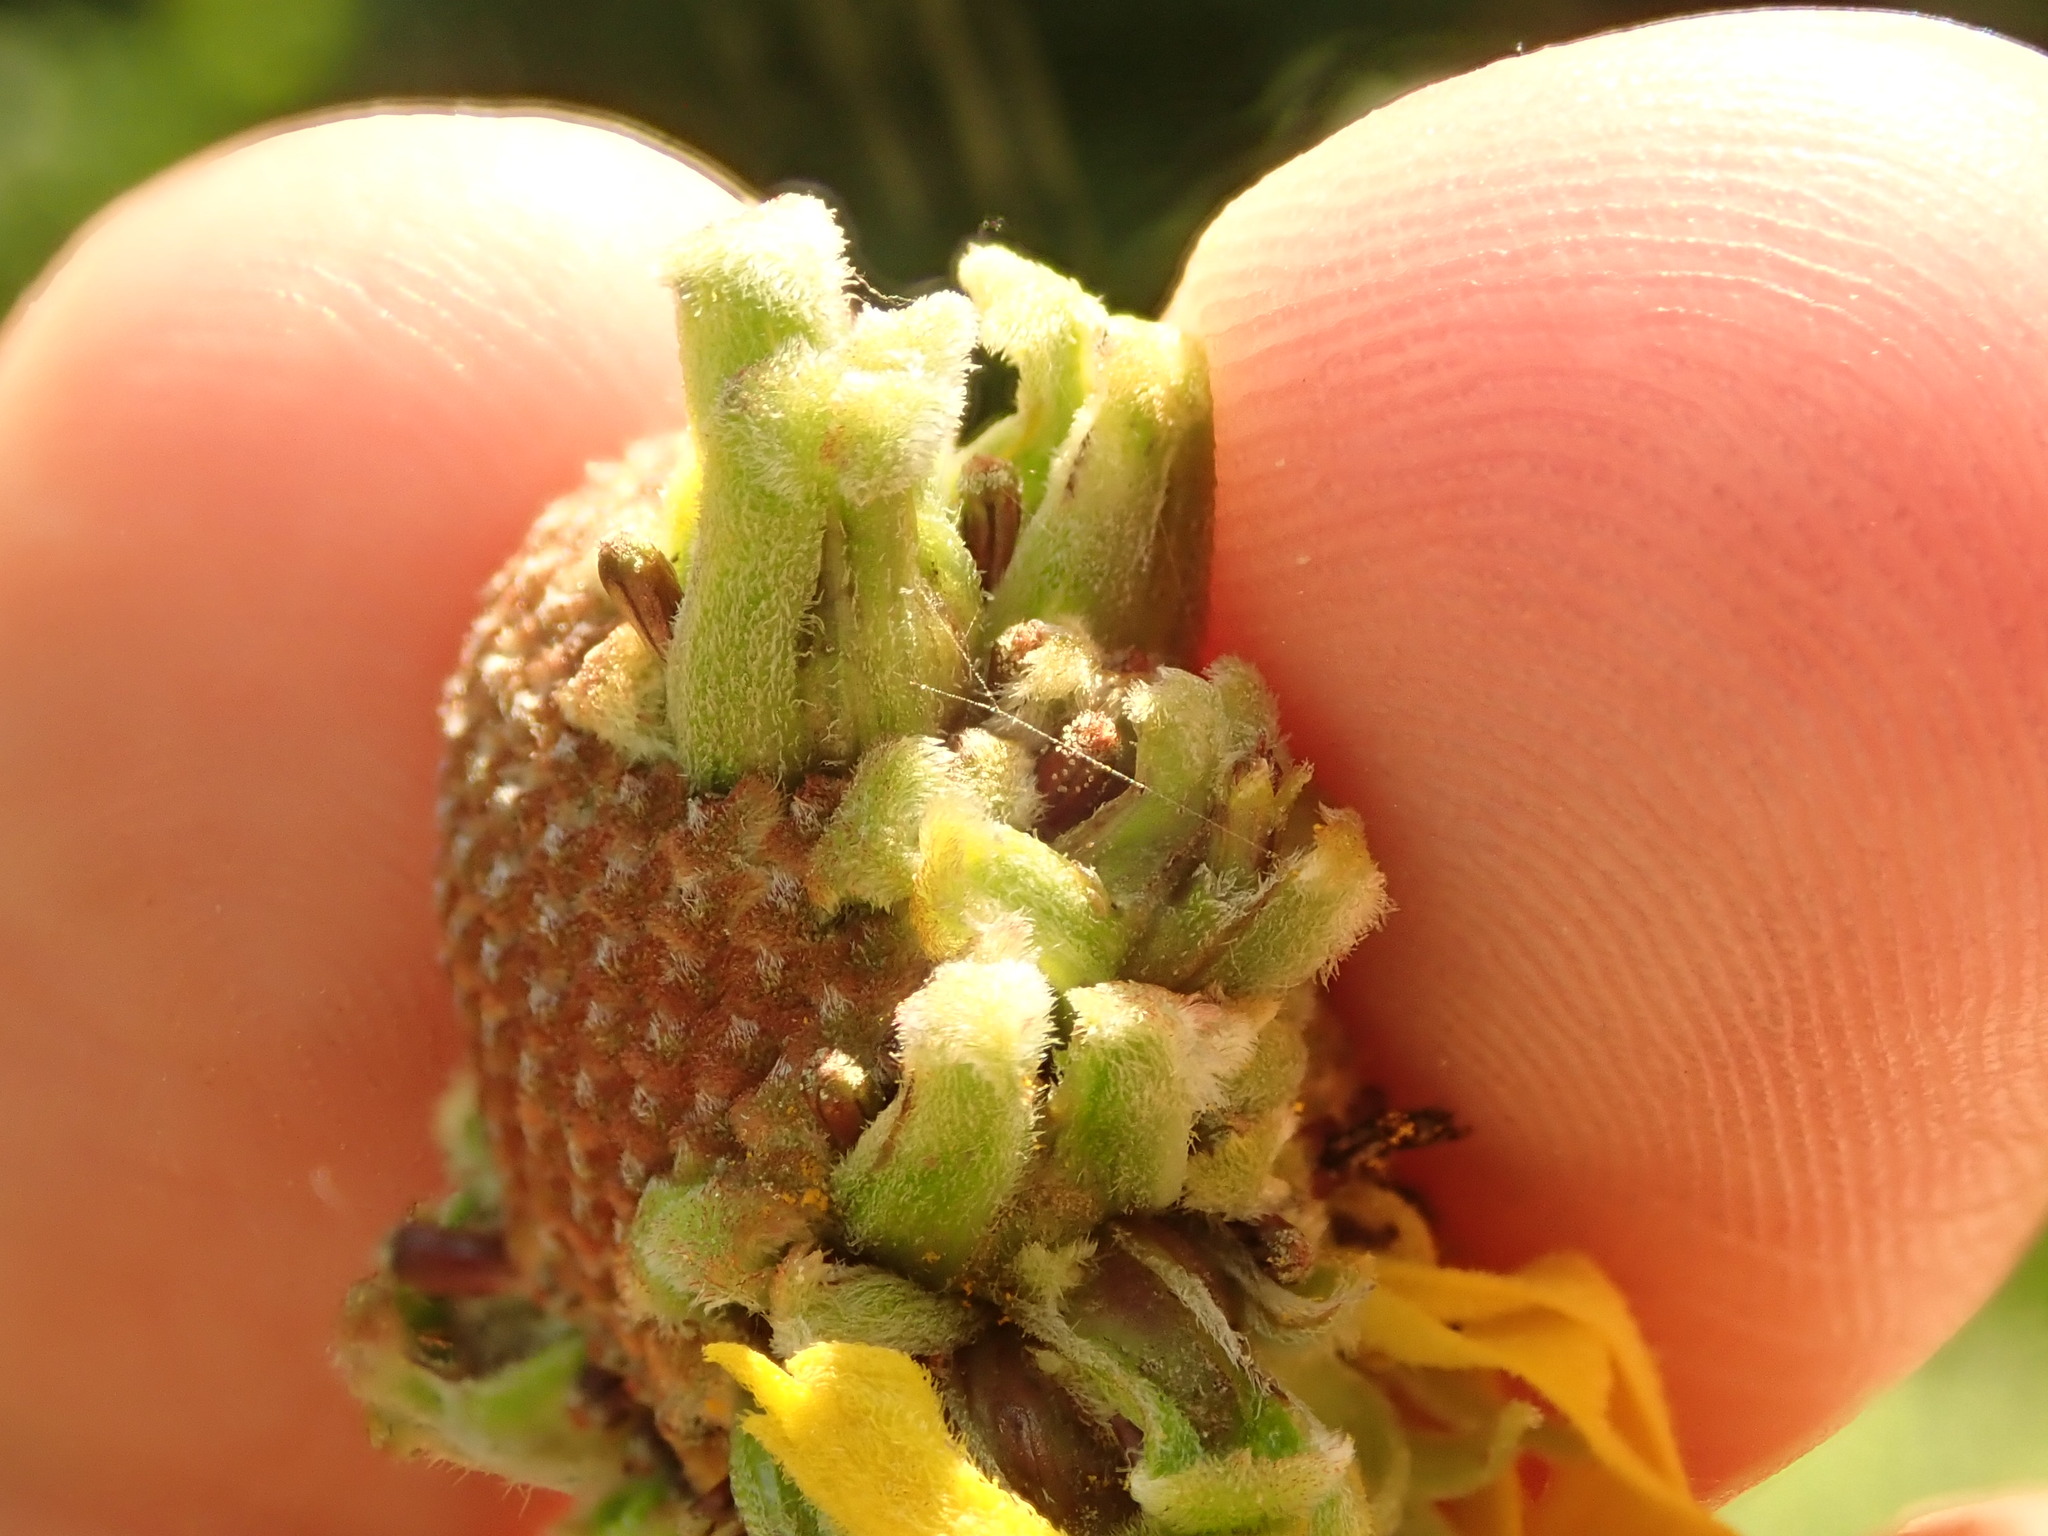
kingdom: Animalia
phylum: Arthropoda
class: Insecta
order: Diptera
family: Cecidomyiidae
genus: Asphondylia
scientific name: Asphondylia ratibidae
